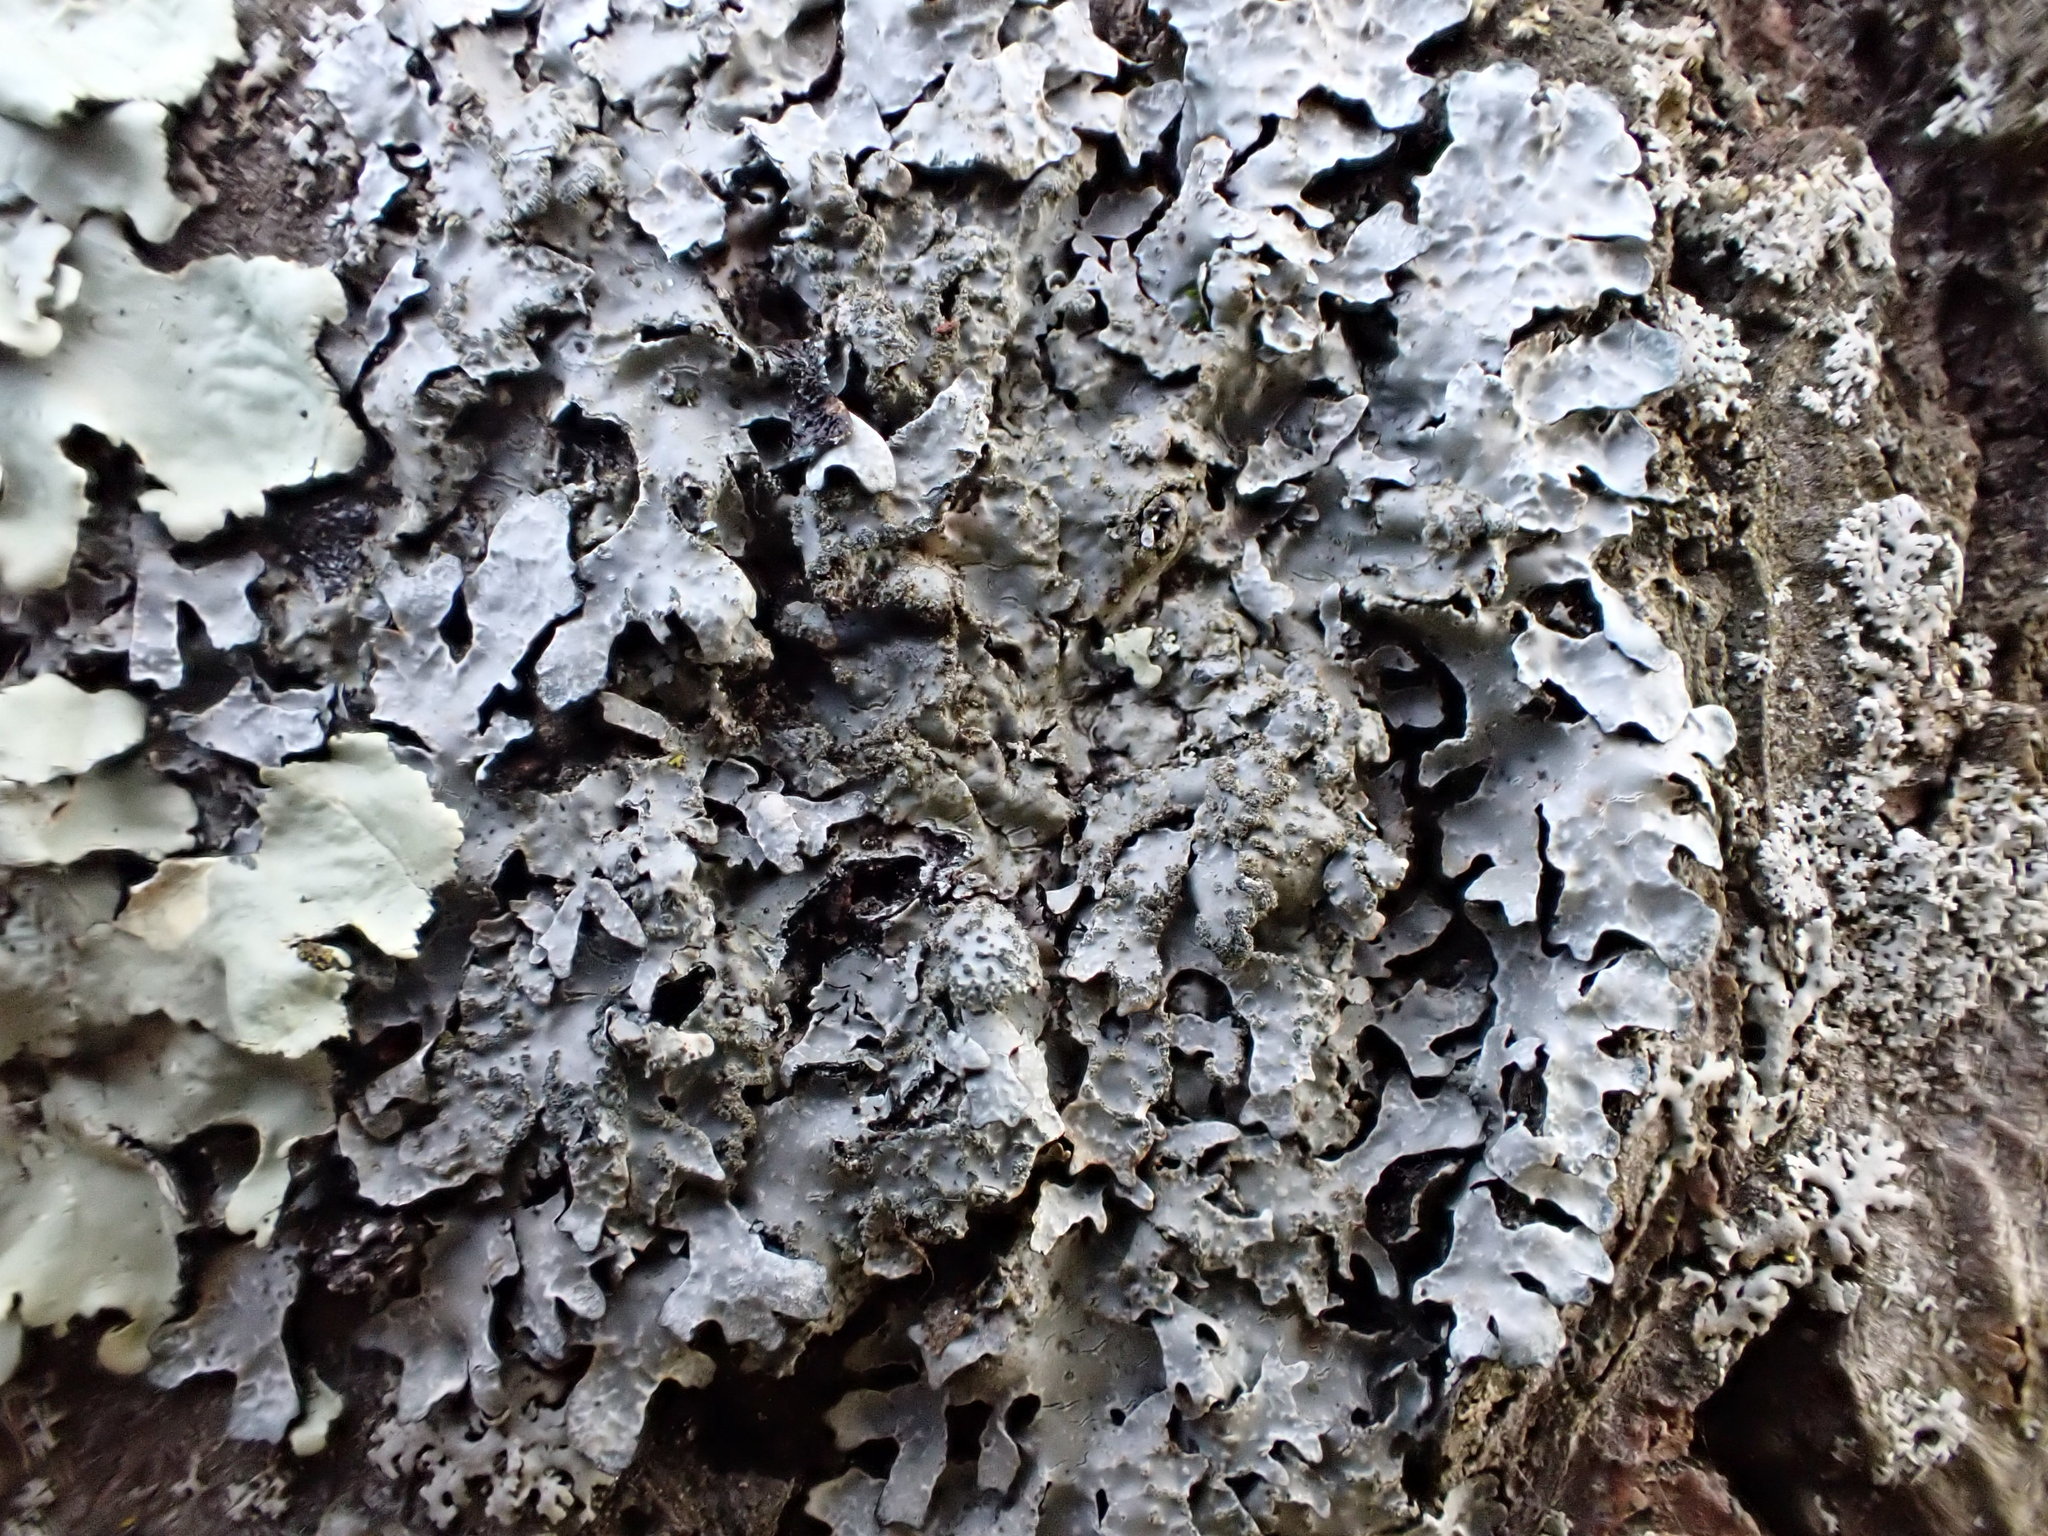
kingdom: Fungi
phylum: Ascomycota
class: Lecanoromycetes
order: Lecanorales
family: Parmeliaceae
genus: Parmelia
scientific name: Parmelia sulcata
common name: Netted shield lichen
